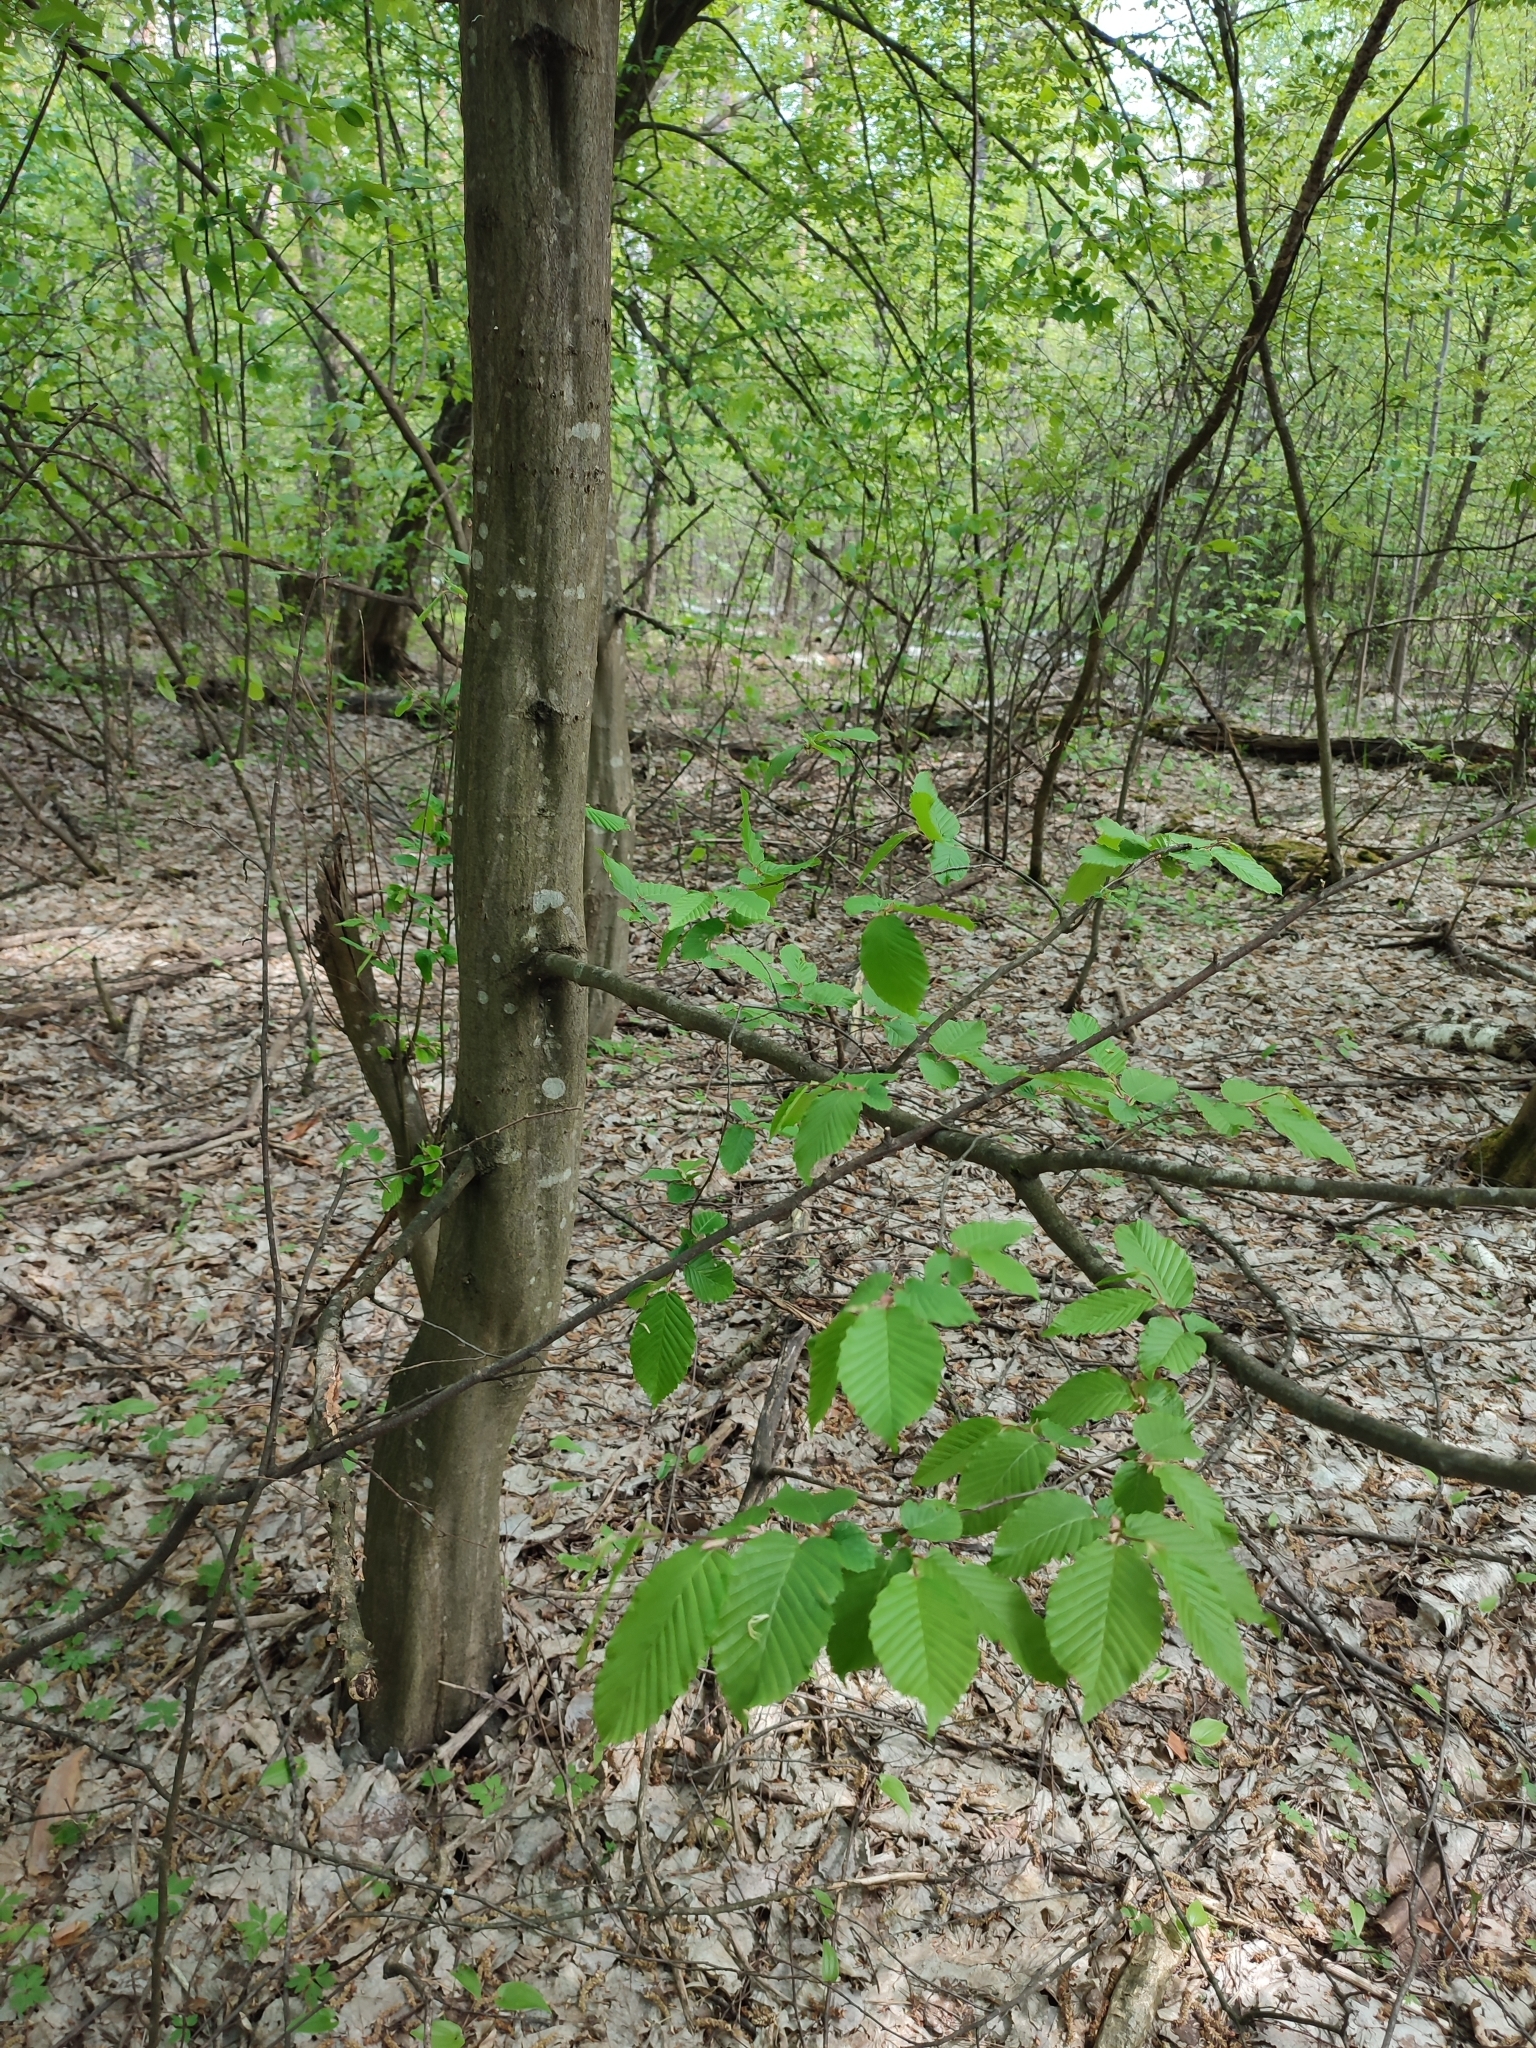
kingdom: Plantae
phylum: Tracheophyta
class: Magnoliopsida
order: Fagales
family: Betulaceae
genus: Carpinus
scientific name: Carpinus betulus
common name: Hornbeam
